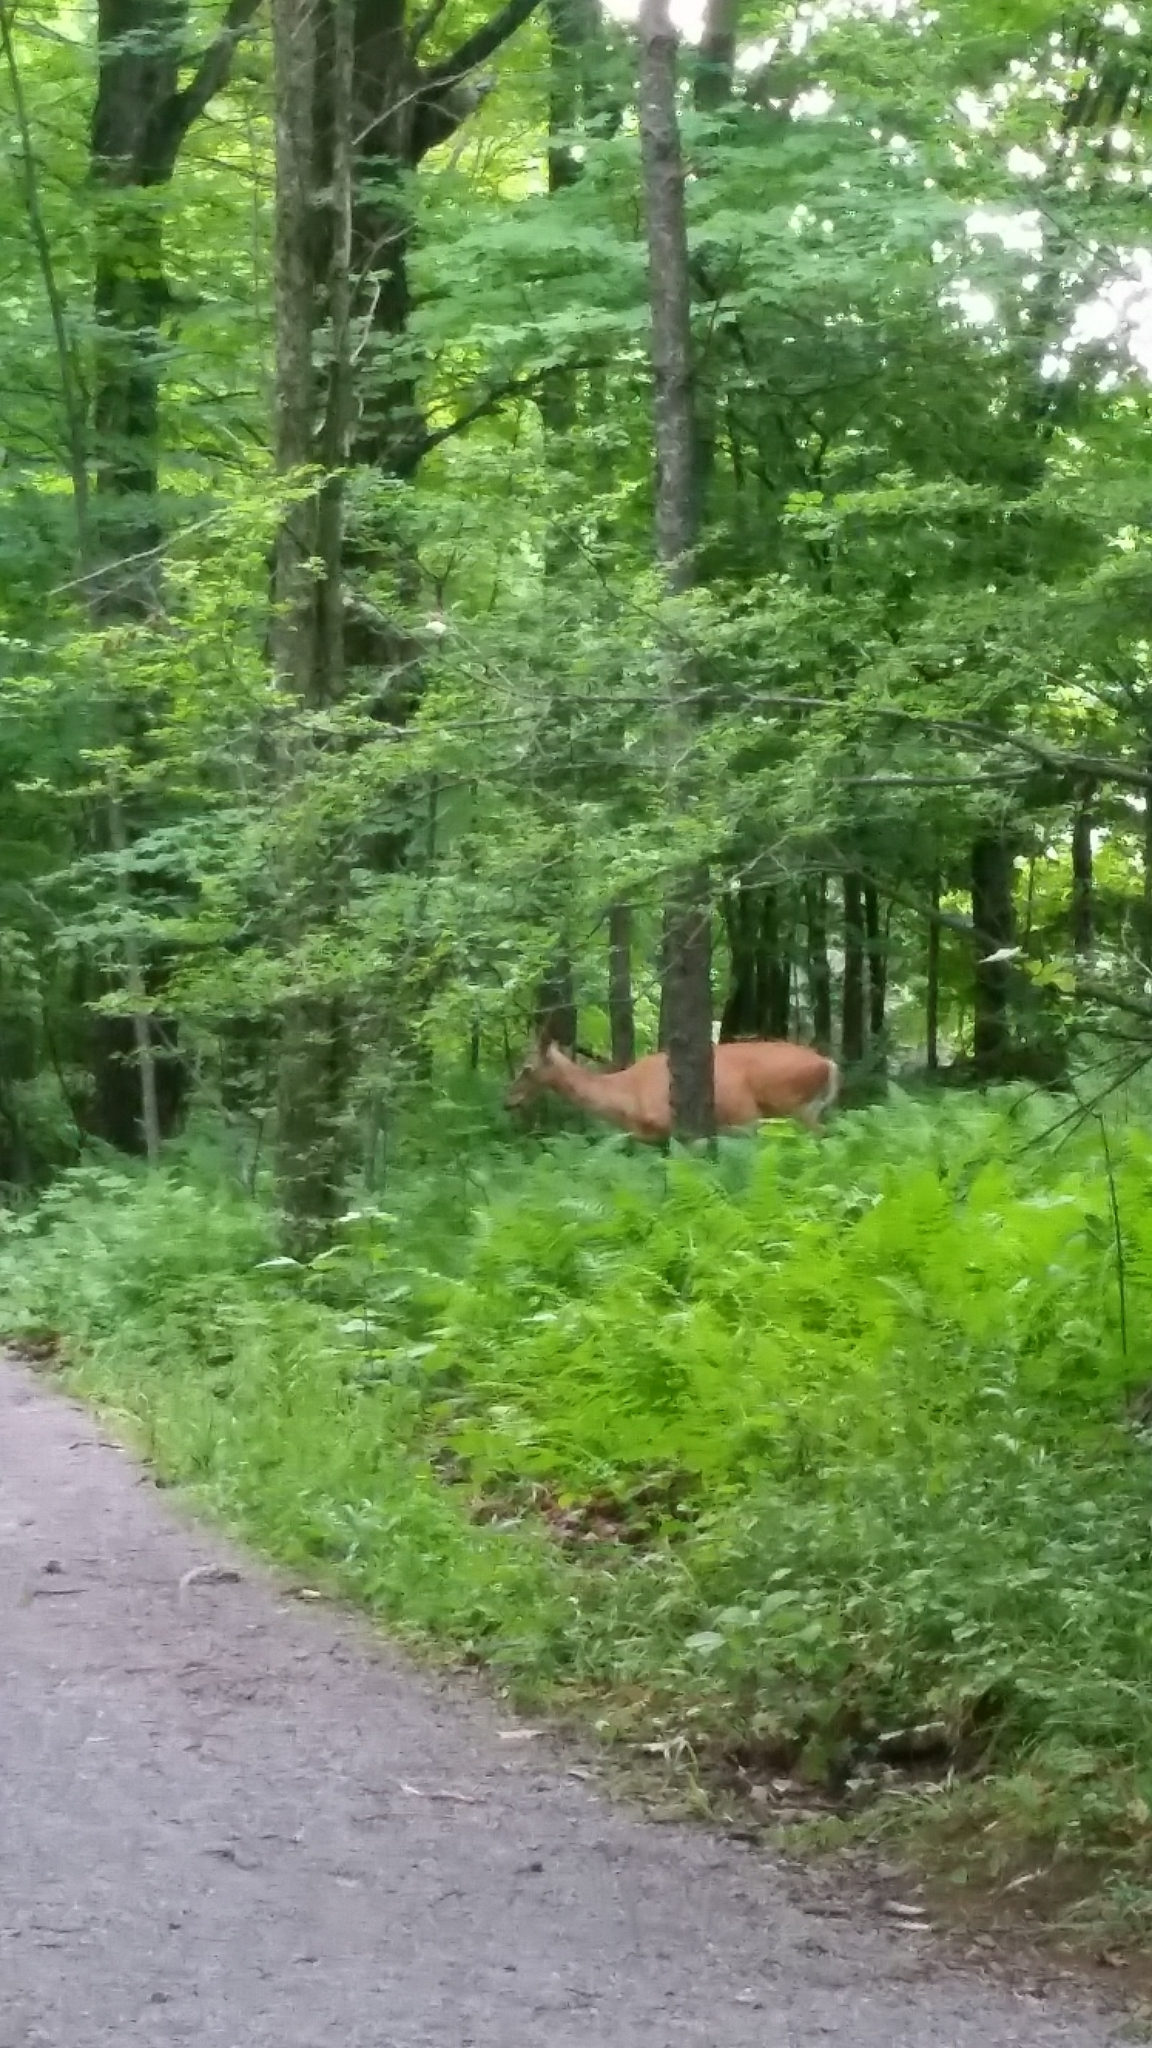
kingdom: Animalia
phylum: Chordata
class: Mammalia
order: Artiodactyla
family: Cervidae
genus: Odocoileus
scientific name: Odocoileus virginianus
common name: White-tailed deer
